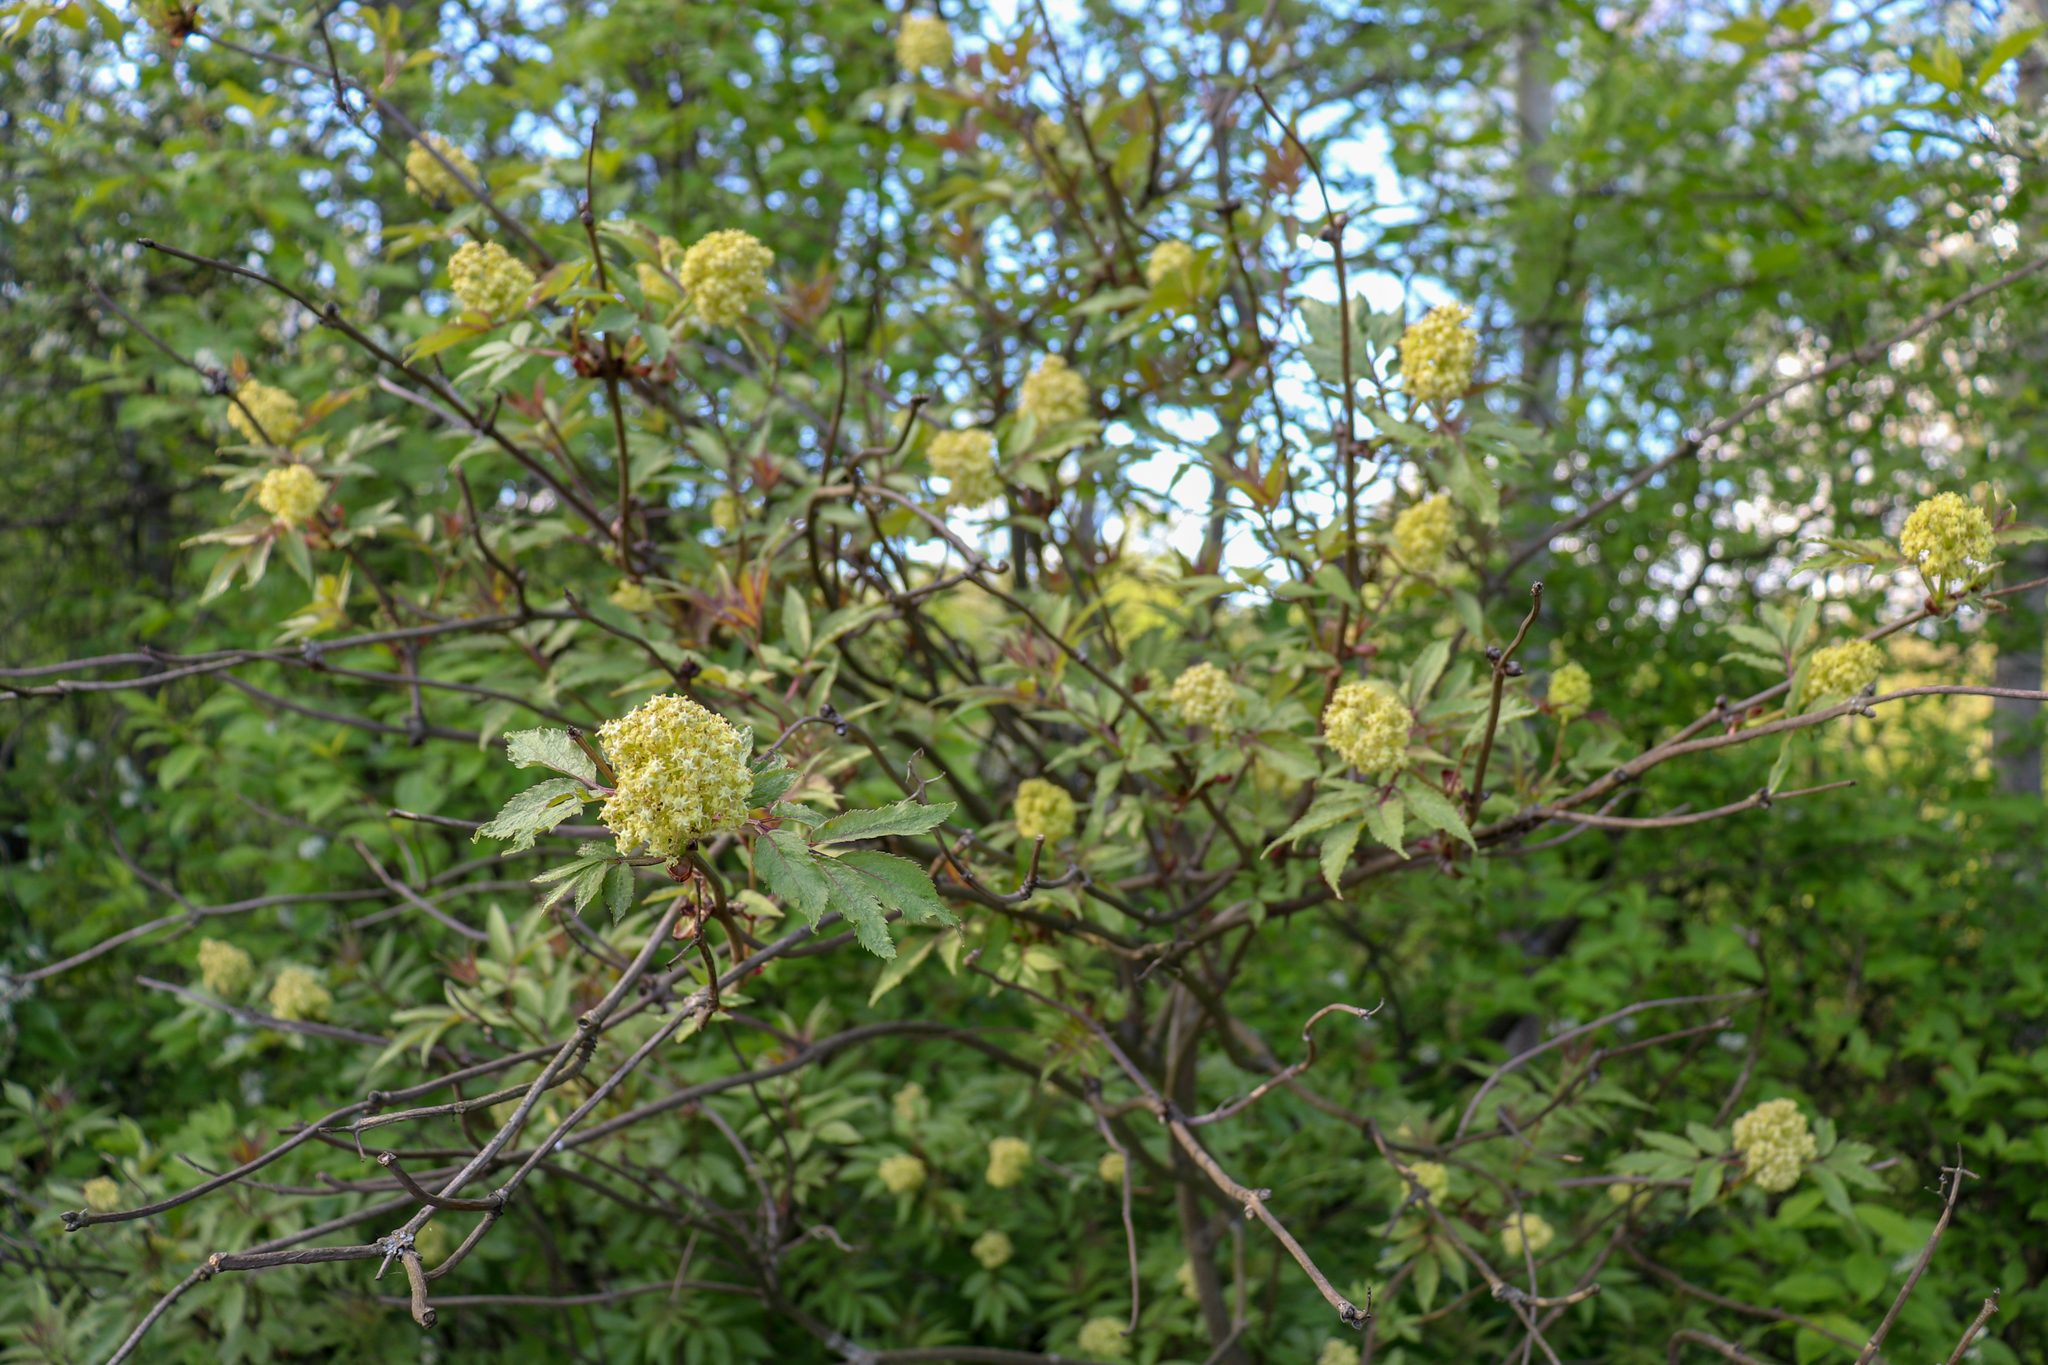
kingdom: Plantae
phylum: Tracheophyta
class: Magnoliopsida
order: Dipsacales
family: Viburnaceae
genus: Sambucus
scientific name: Sambucus racemosa
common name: Red-berried elder
